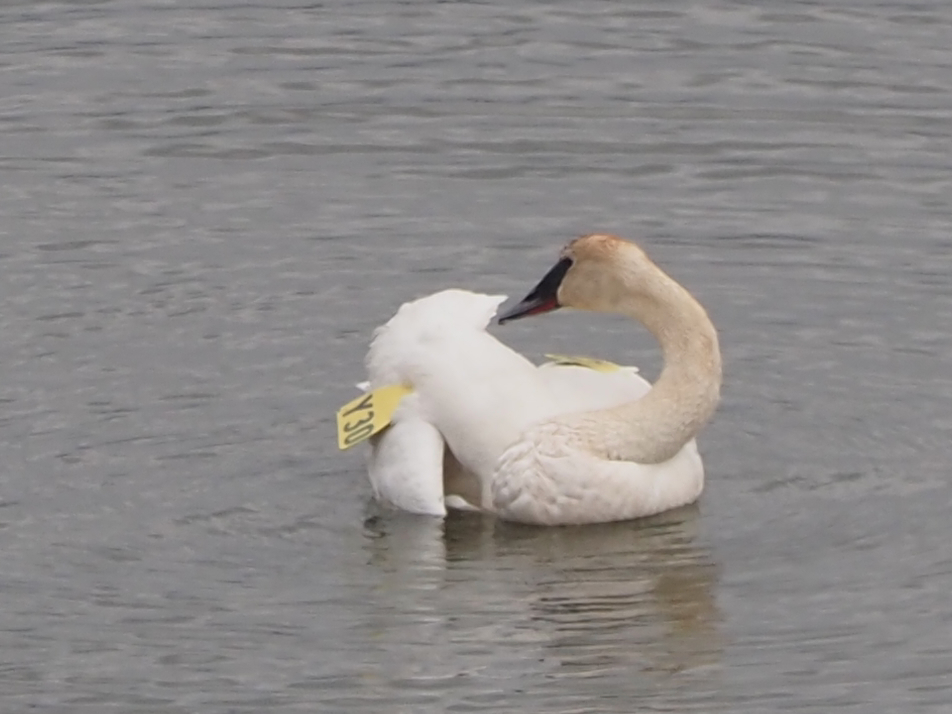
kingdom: Animalia
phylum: Chordata
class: Aves
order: Anseriformes
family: Anatidae
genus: Cygnus
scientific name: Cygnus buccinator
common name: Trumpeter swan
